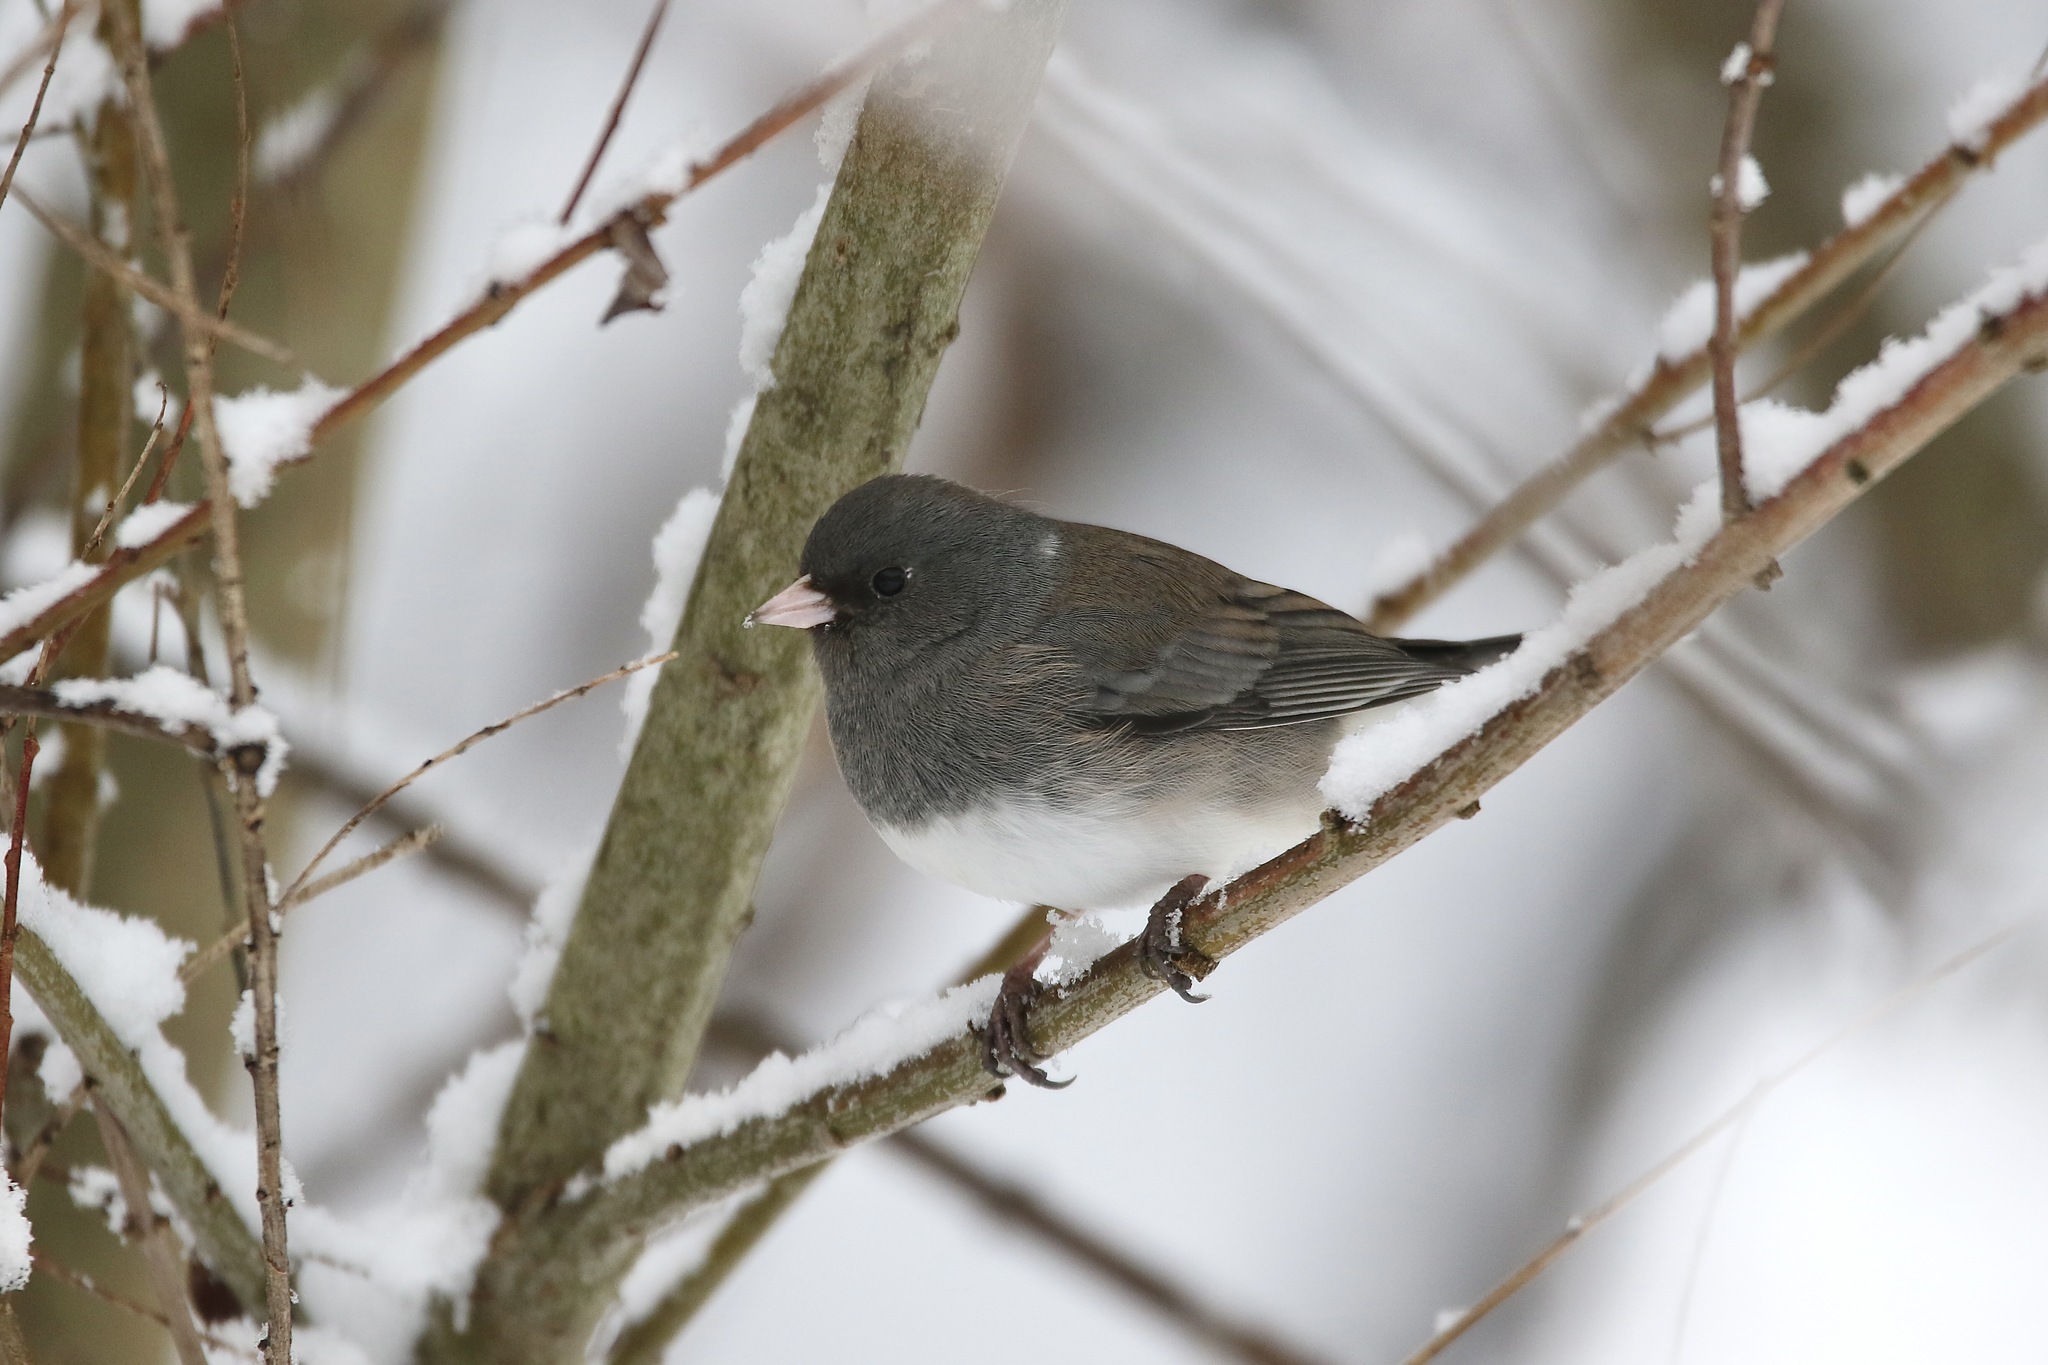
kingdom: Animalia
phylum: Chordata
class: Aves
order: Passeriformes
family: Passerellidae
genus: Junco
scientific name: Junco hyemalis
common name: Dark-eyed junco
